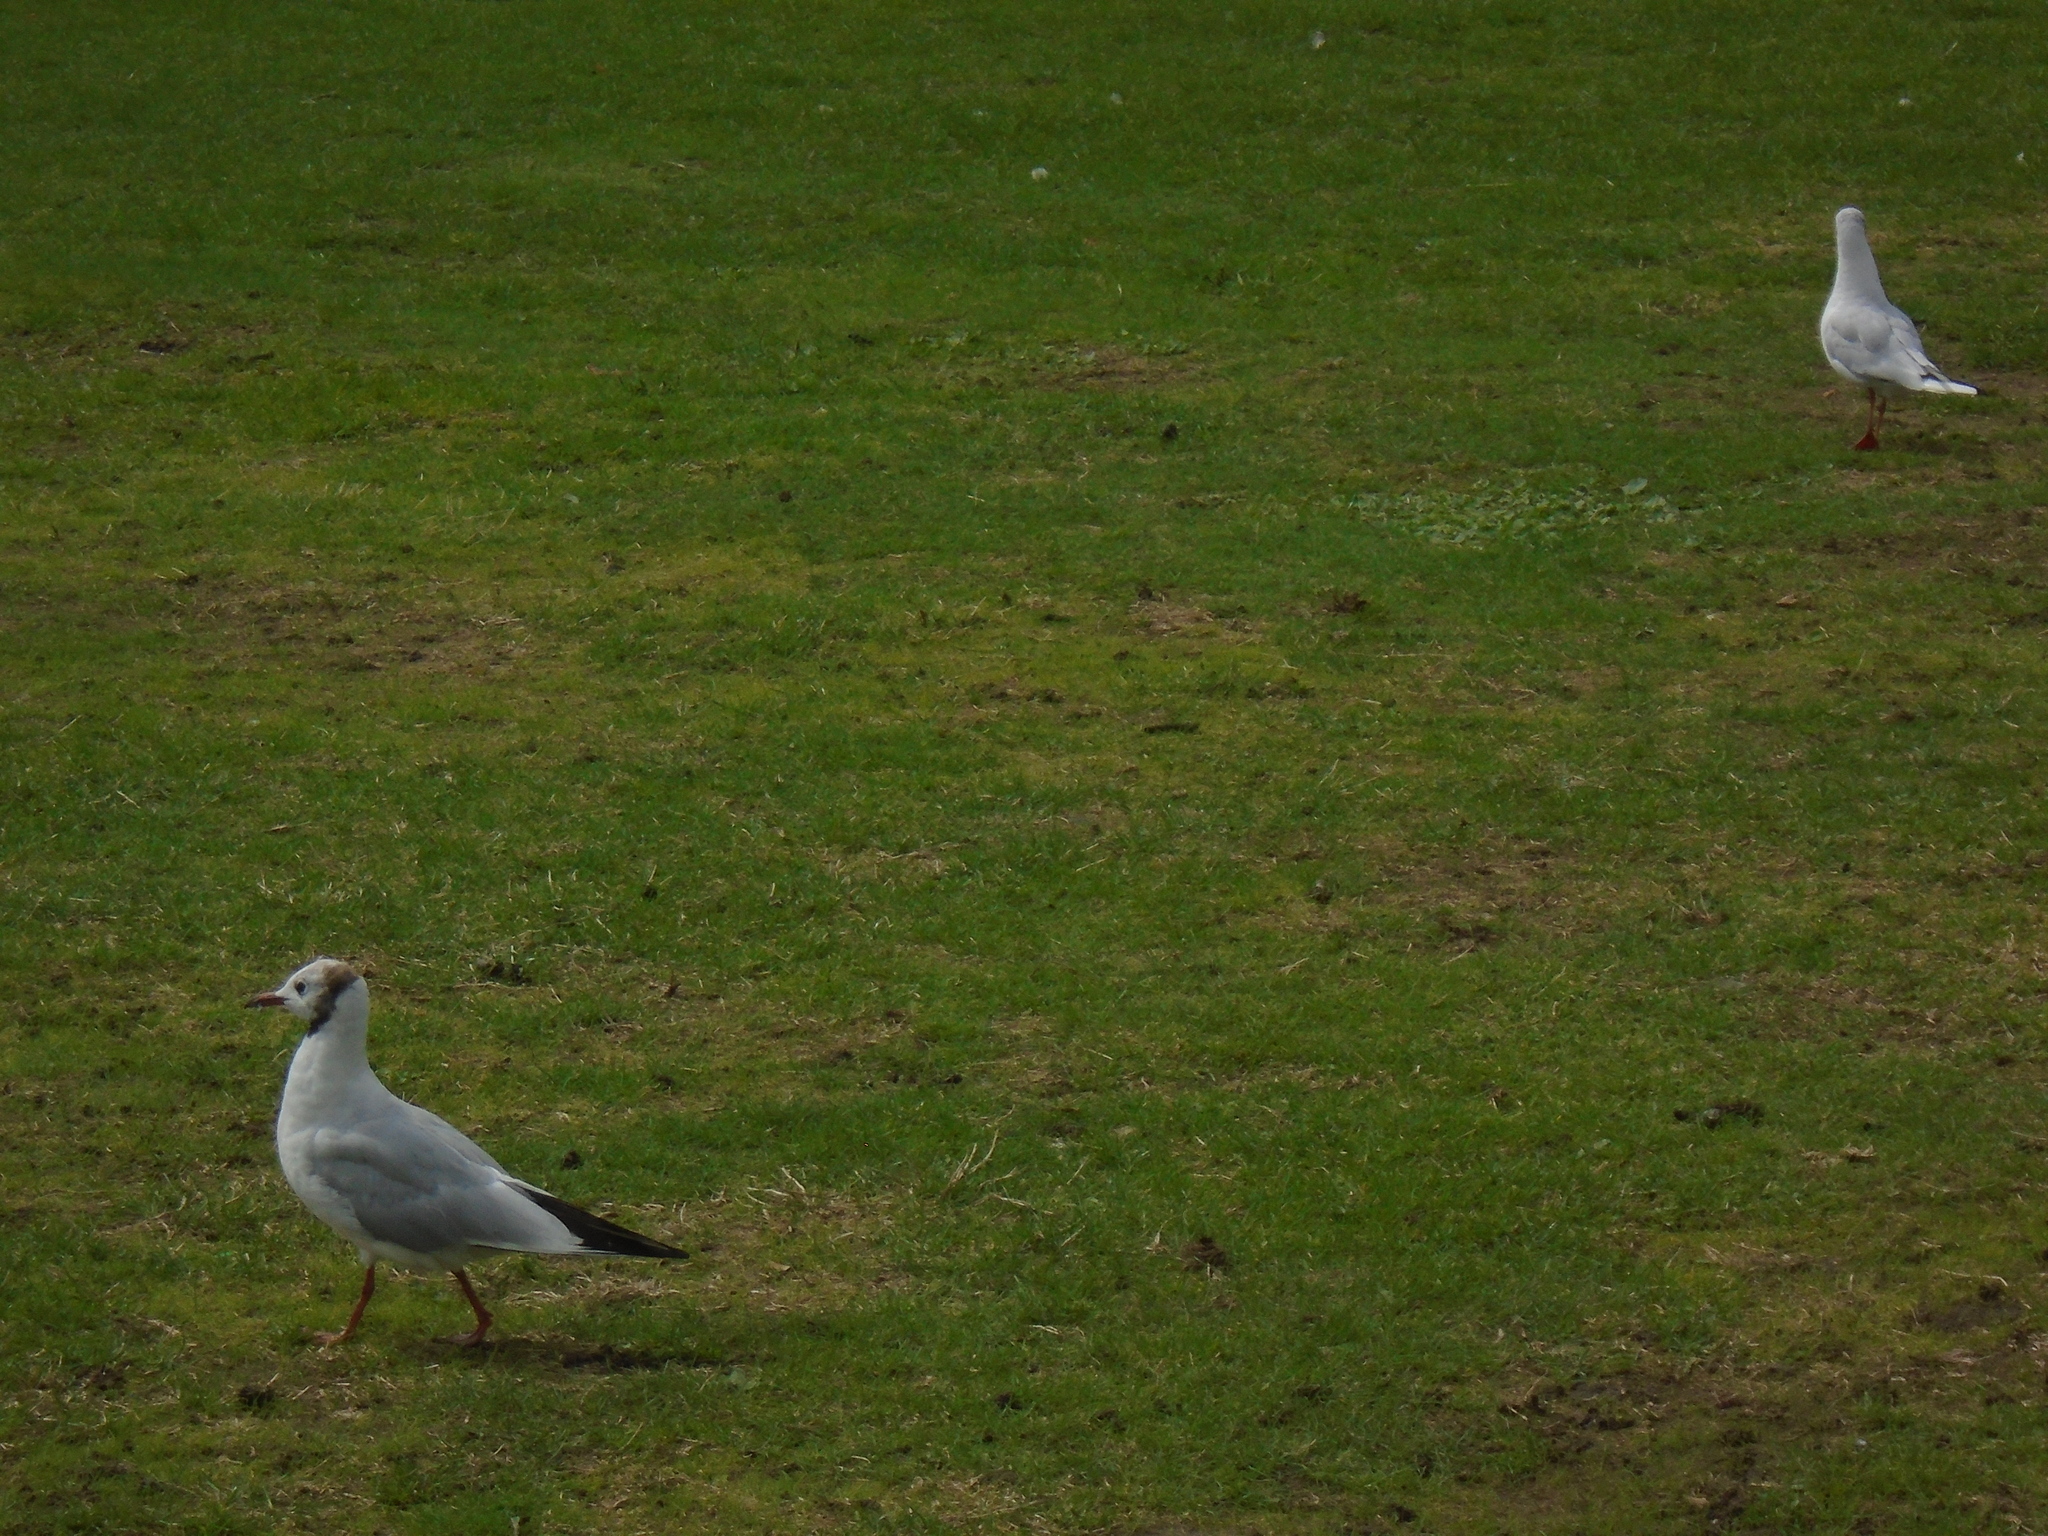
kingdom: Animalia
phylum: Chordata
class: Aves
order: Charadriiformes
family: Laridae
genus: Chroicocephalus
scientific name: Chroicocephalus ridibundus
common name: Black-headed gull
